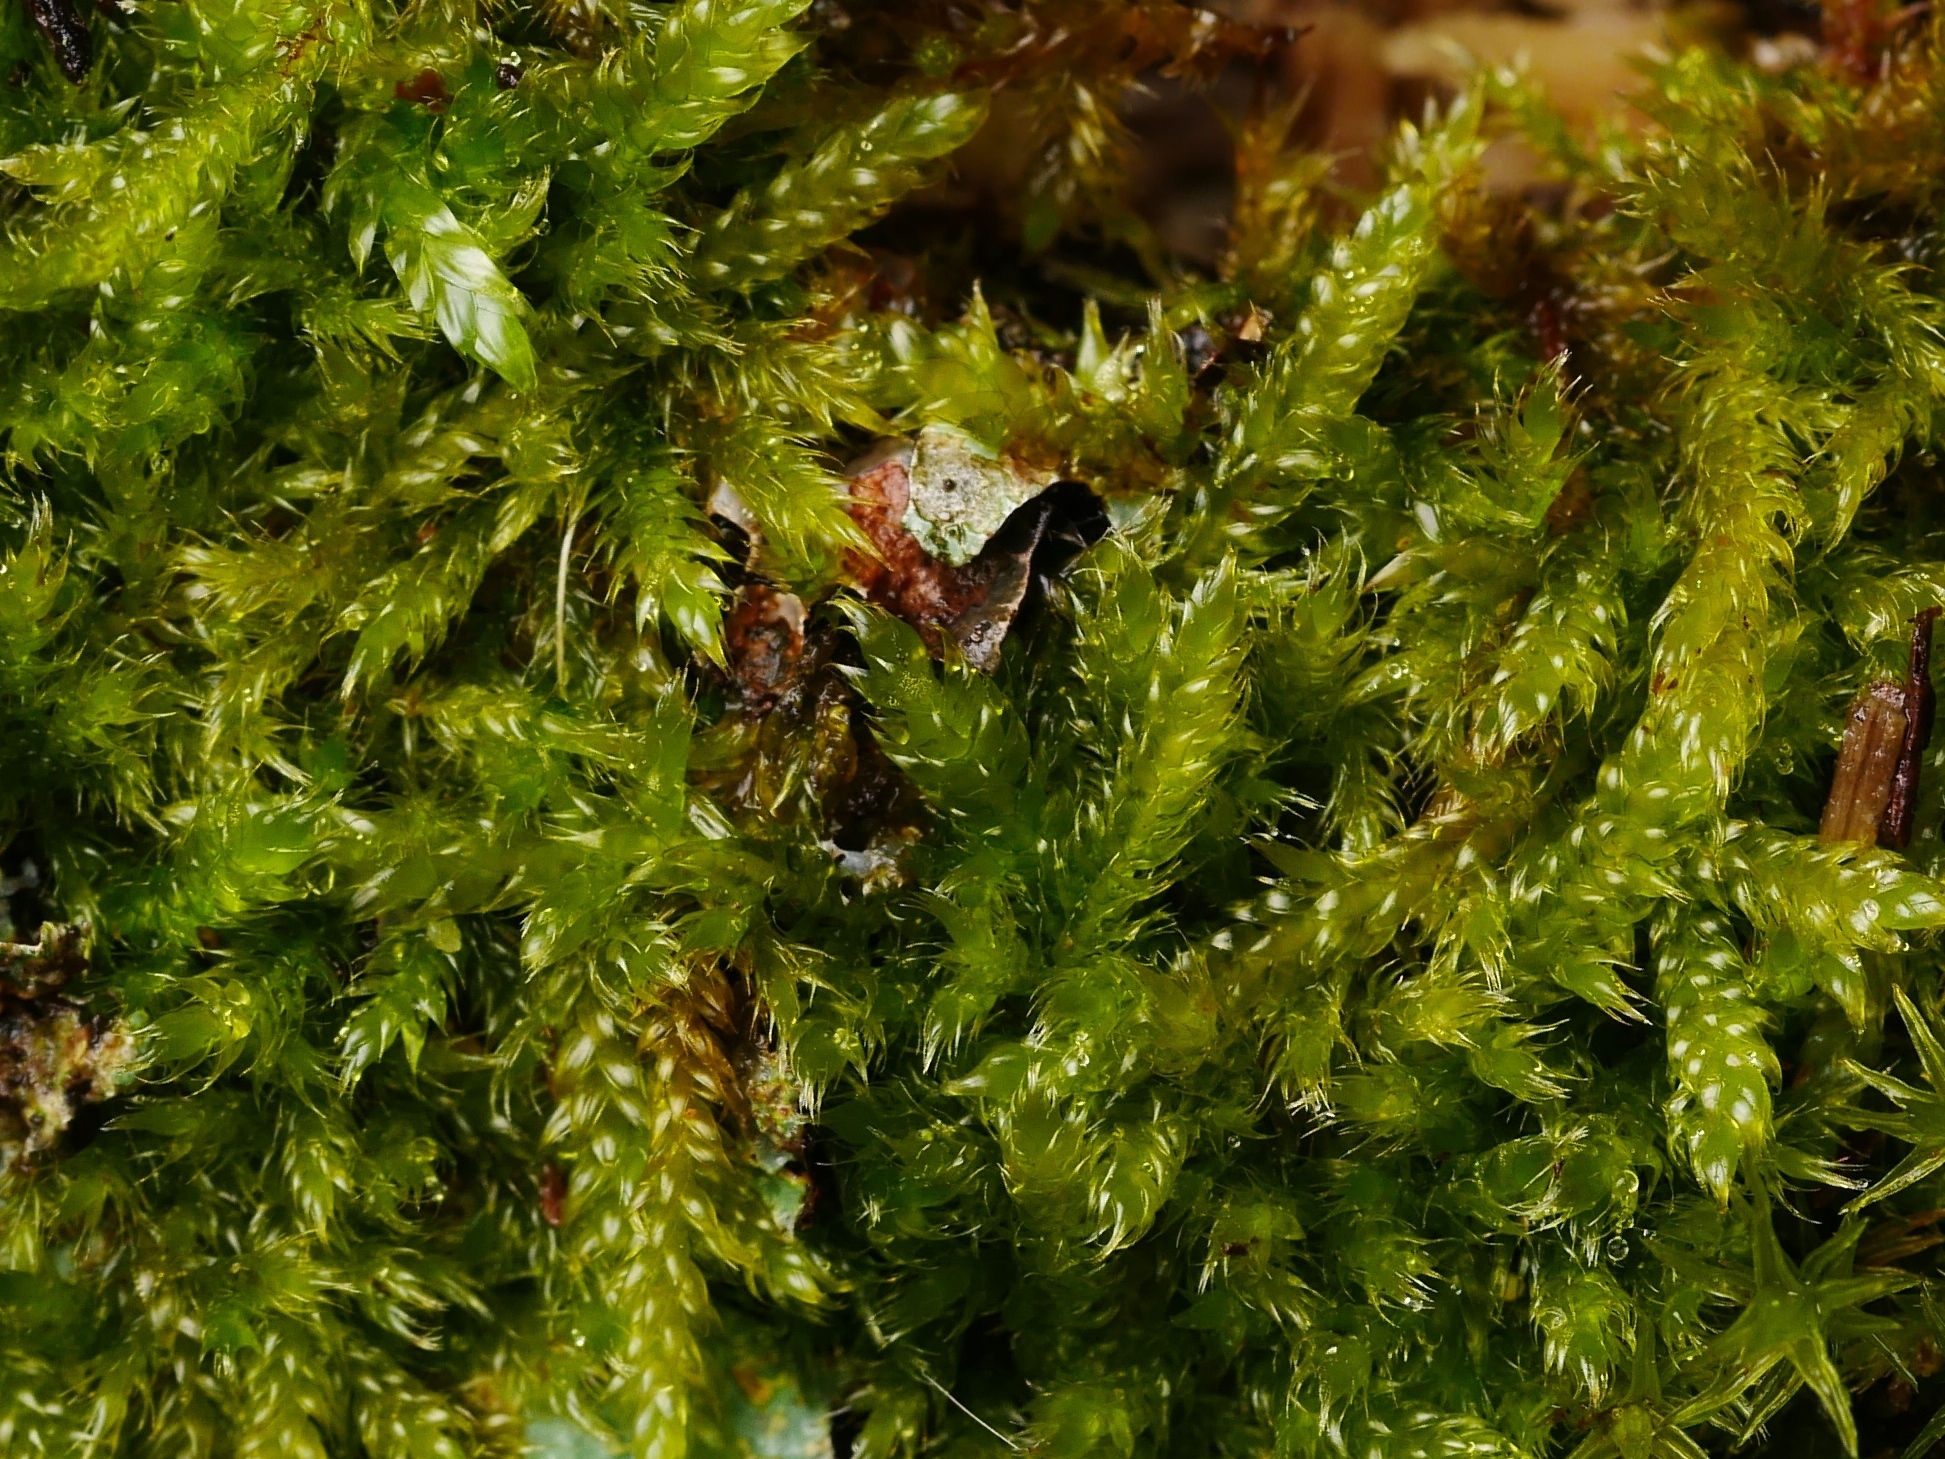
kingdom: Plantae
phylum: Bryophyta
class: Bryopsida
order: Hypnales
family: Hypnaceae
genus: Hypnum
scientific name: Hypnum cupressiforme
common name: Cypress-leaved plait-moss
